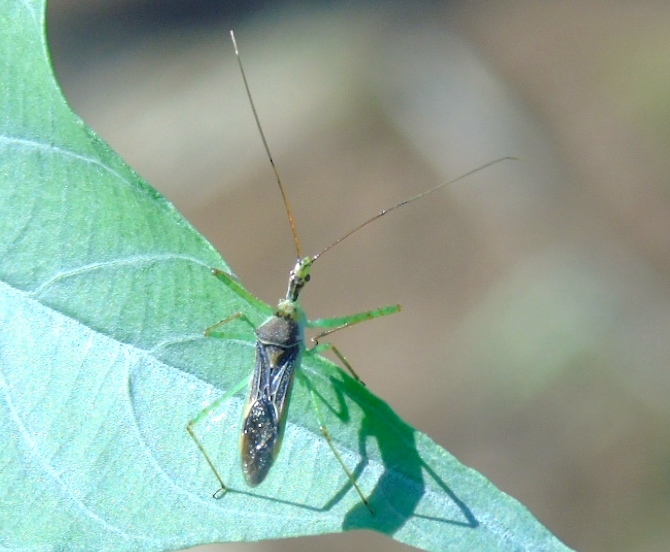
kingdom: Animalia
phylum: Arthropoda
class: Insecta
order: Hemiptera
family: Reduviidae
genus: Zelus
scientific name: Zelus
